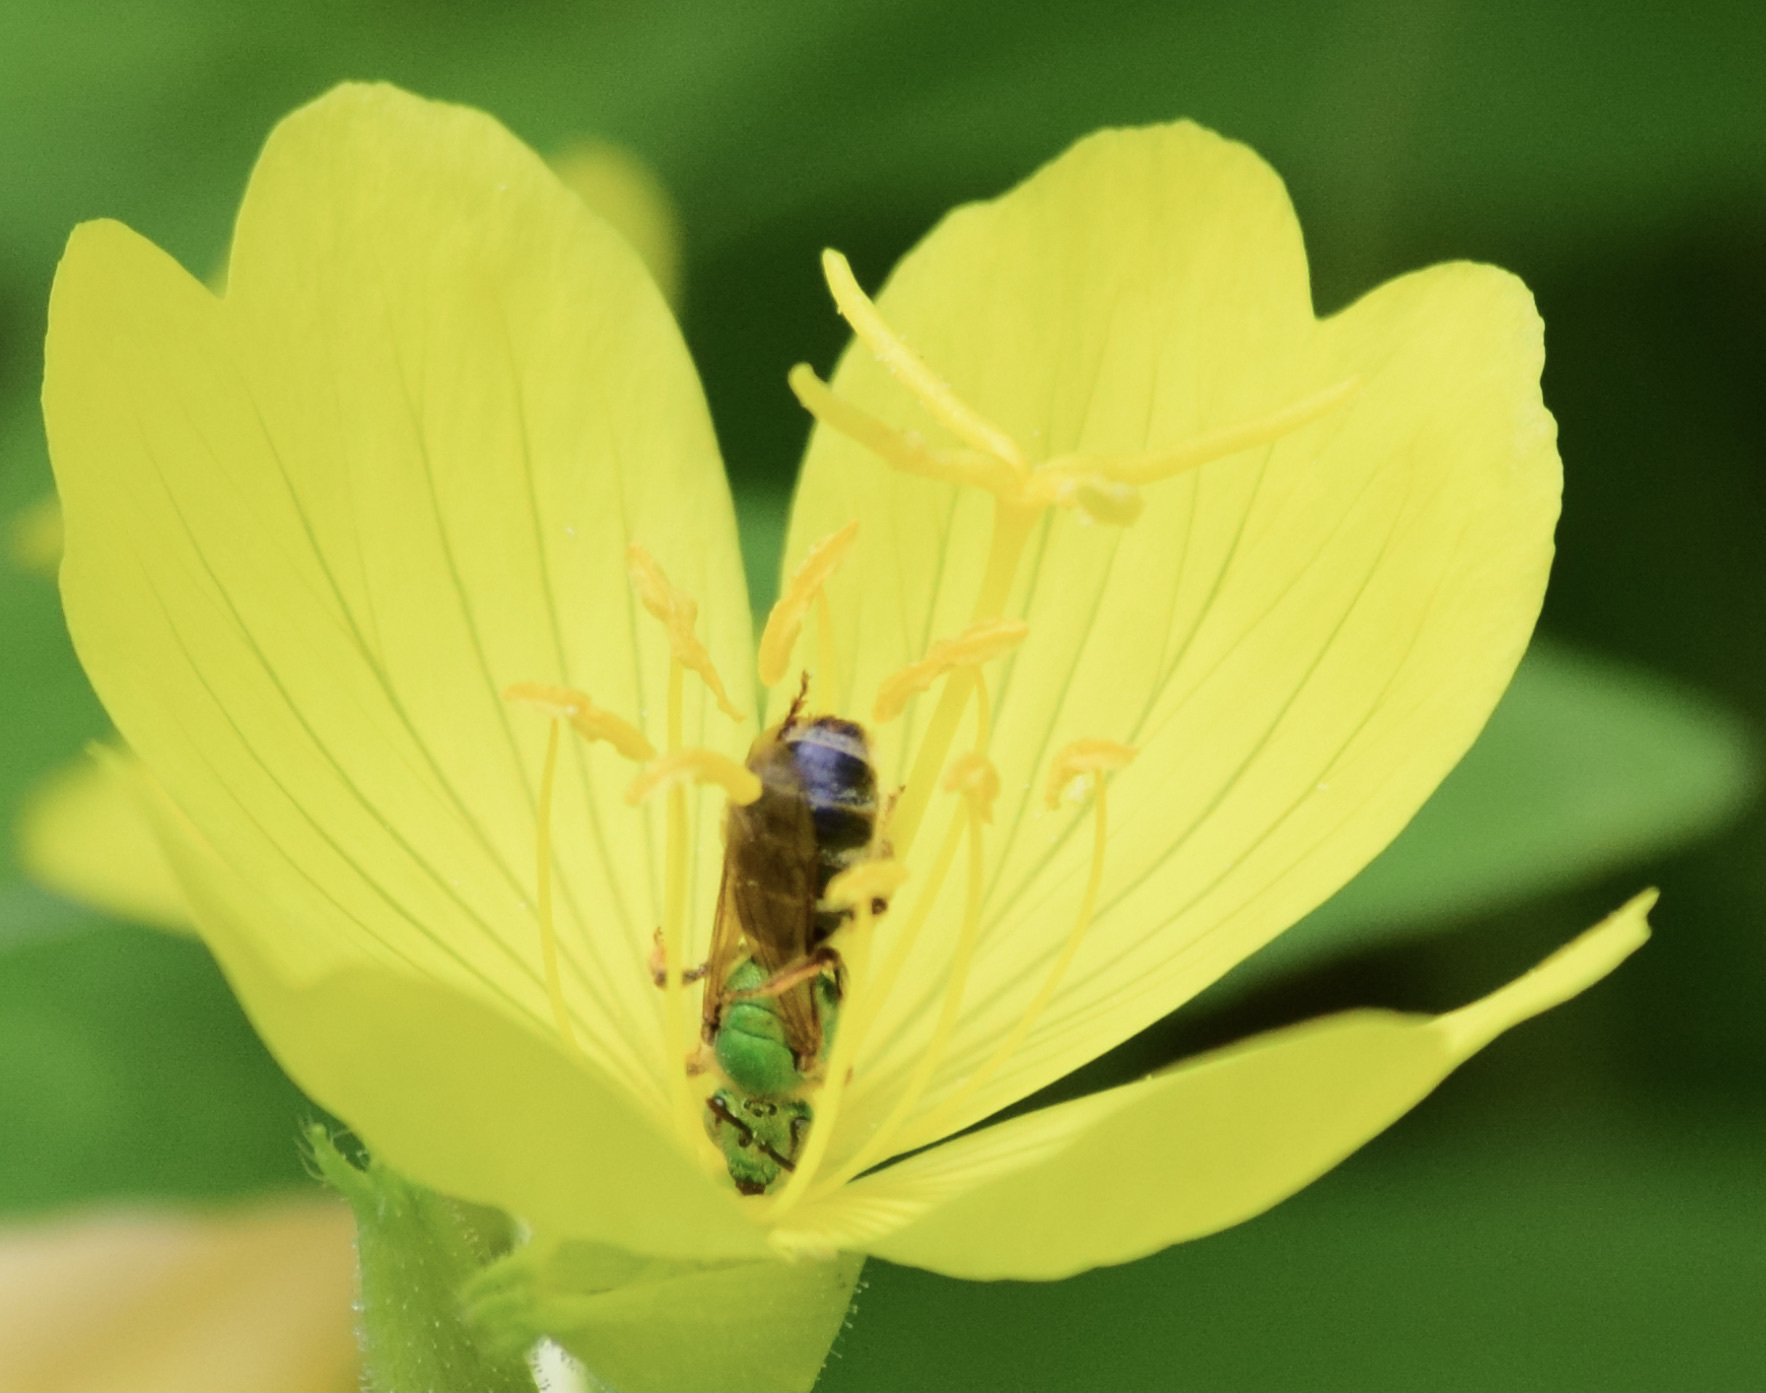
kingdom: Animalia
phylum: Arthropoda
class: Insecta
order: Hymenoptera
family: Halictidae
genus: Agapostemon
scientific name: Agapostemon virescens
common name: Bicolored striped sweat bee
